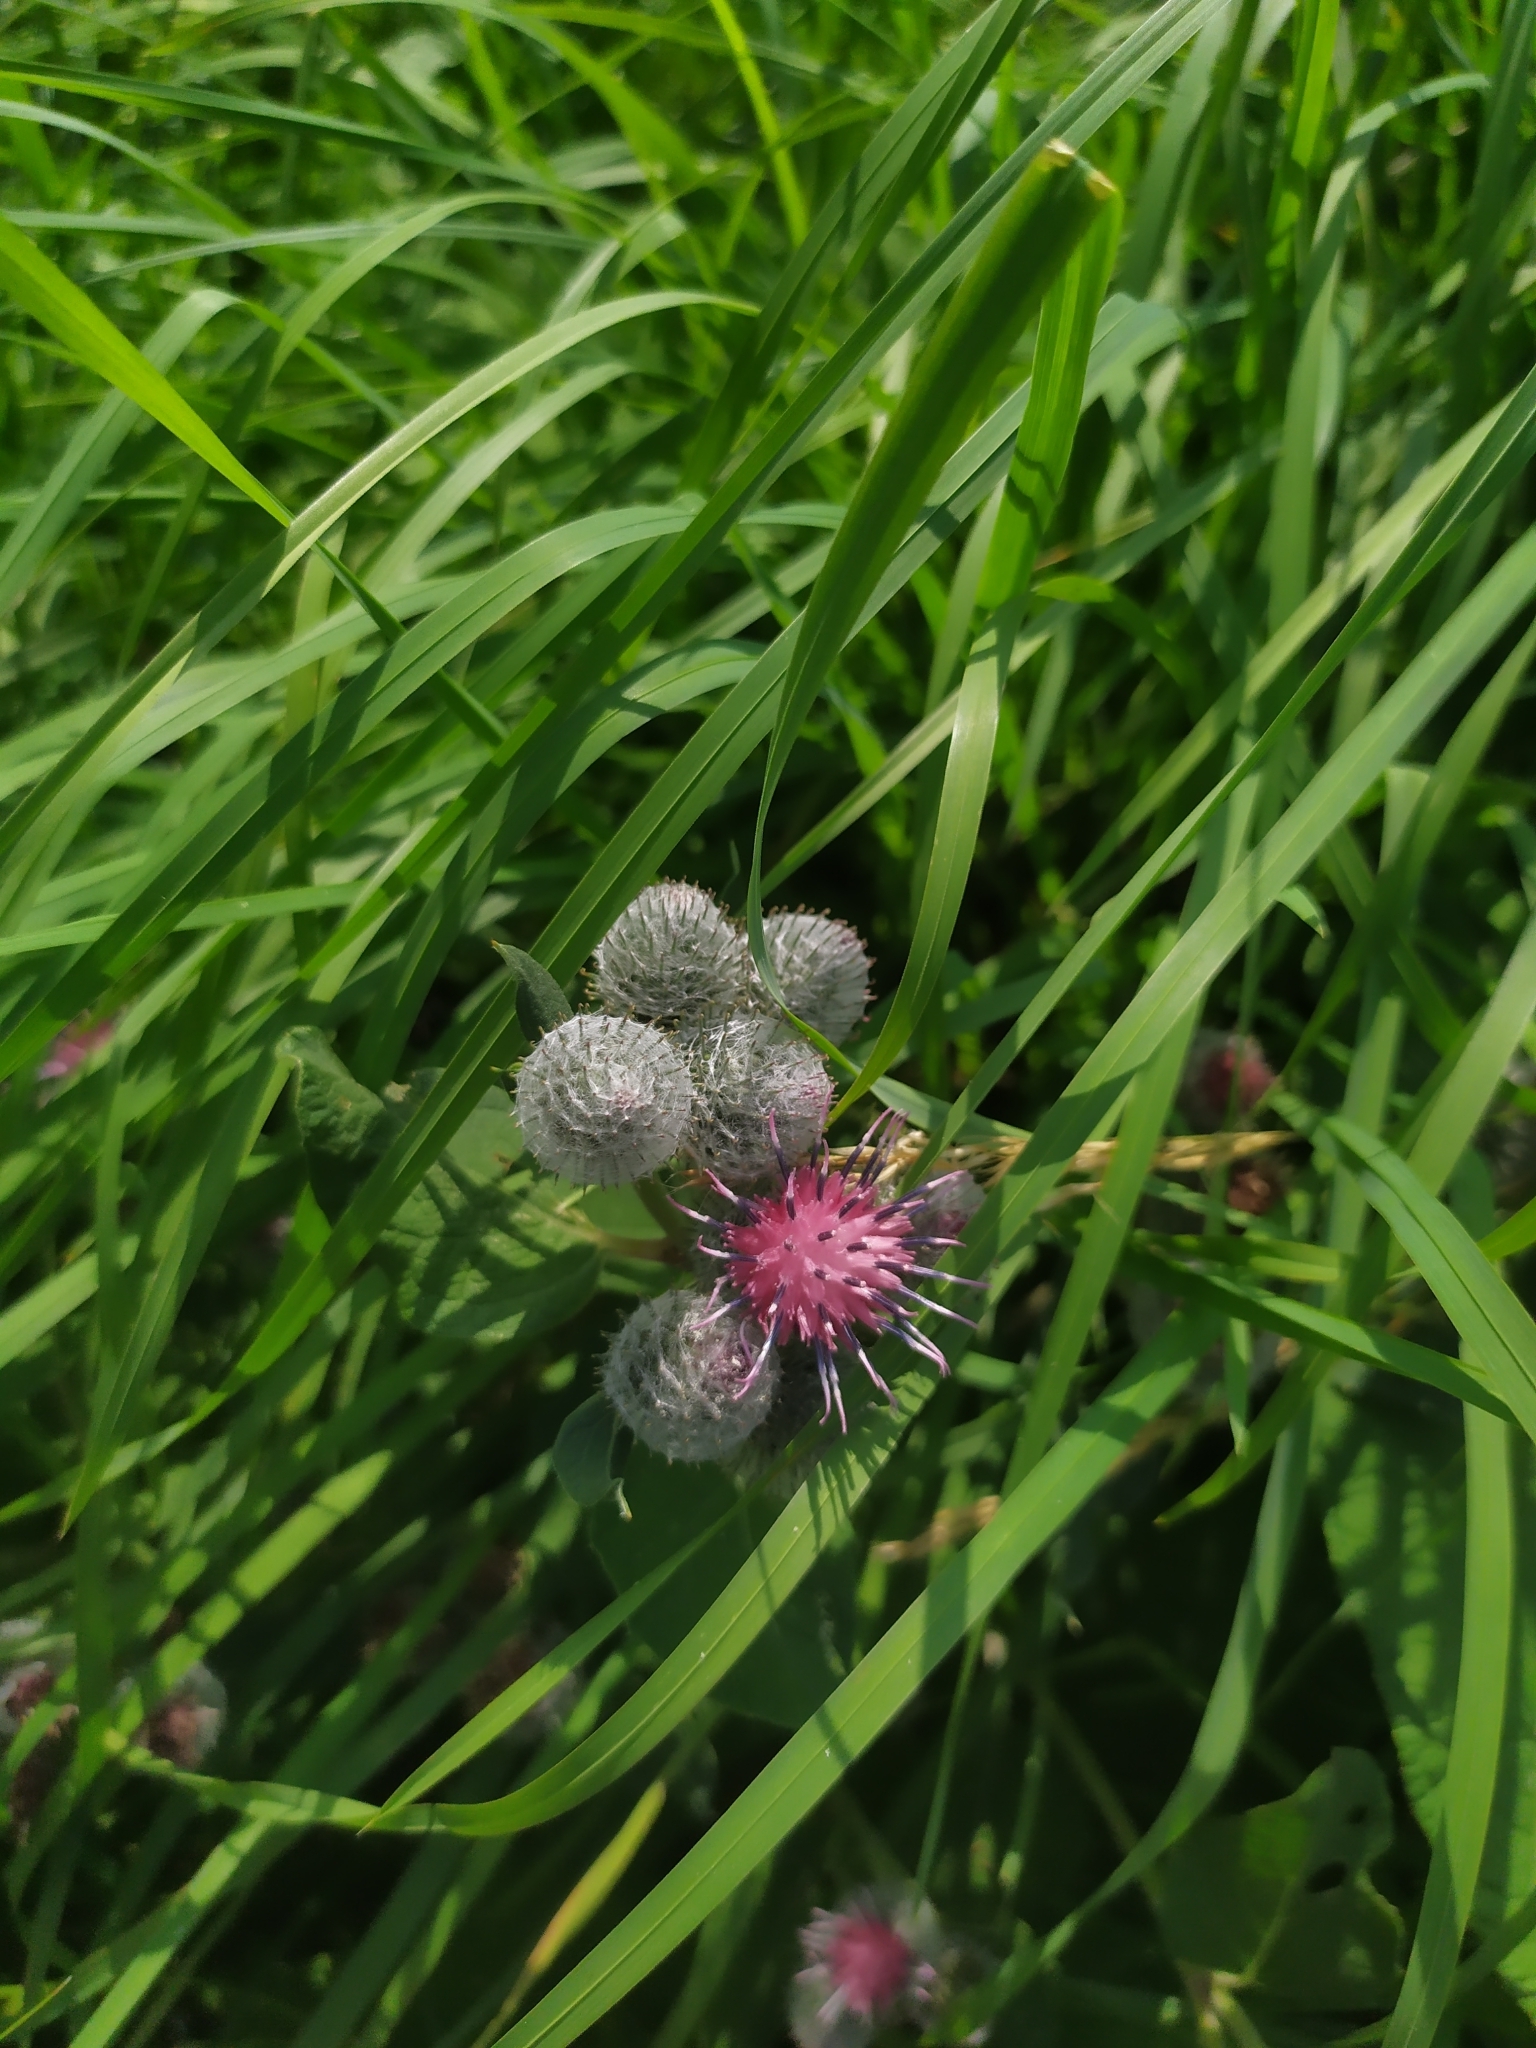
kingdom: Plantae
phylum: Tracheophyta
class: Magnoliopsida
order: Asterales
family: Asteraceae
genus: Arctium
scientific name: Arctium tomentosum
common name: Woolly burdock
